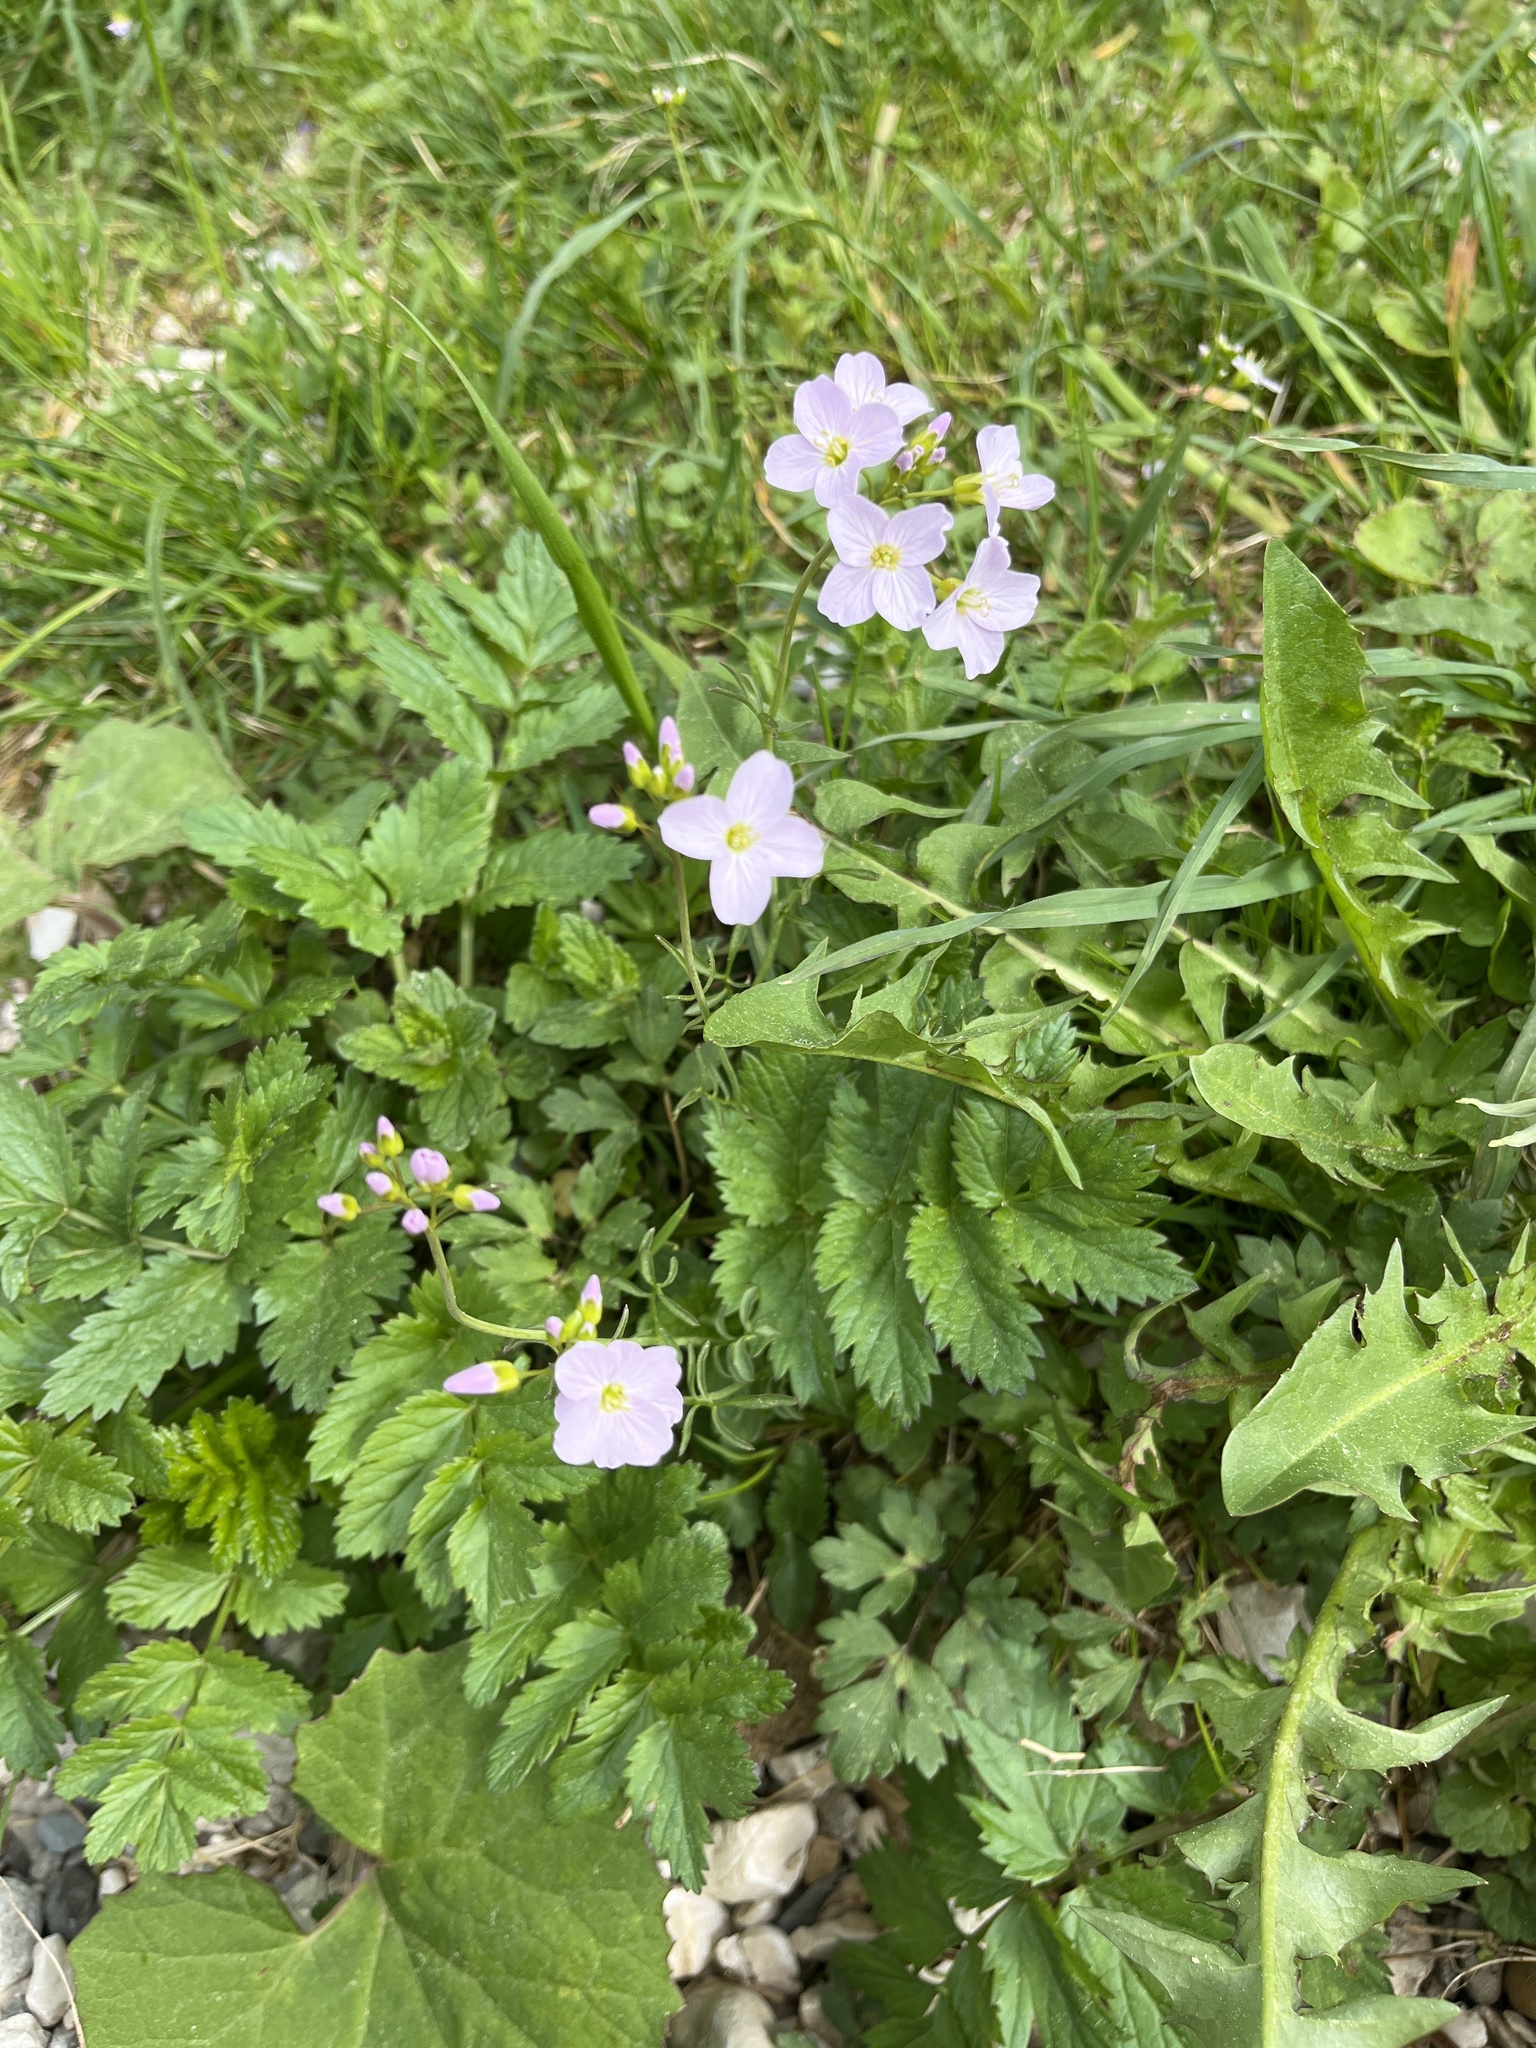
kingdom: Plantae
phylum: Tracheophyta
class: Magnoliopsida
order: Brassicales
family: Brassicaceae
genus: Cardamine
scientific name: Cardamine pratensis
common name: Cuckoo flower
